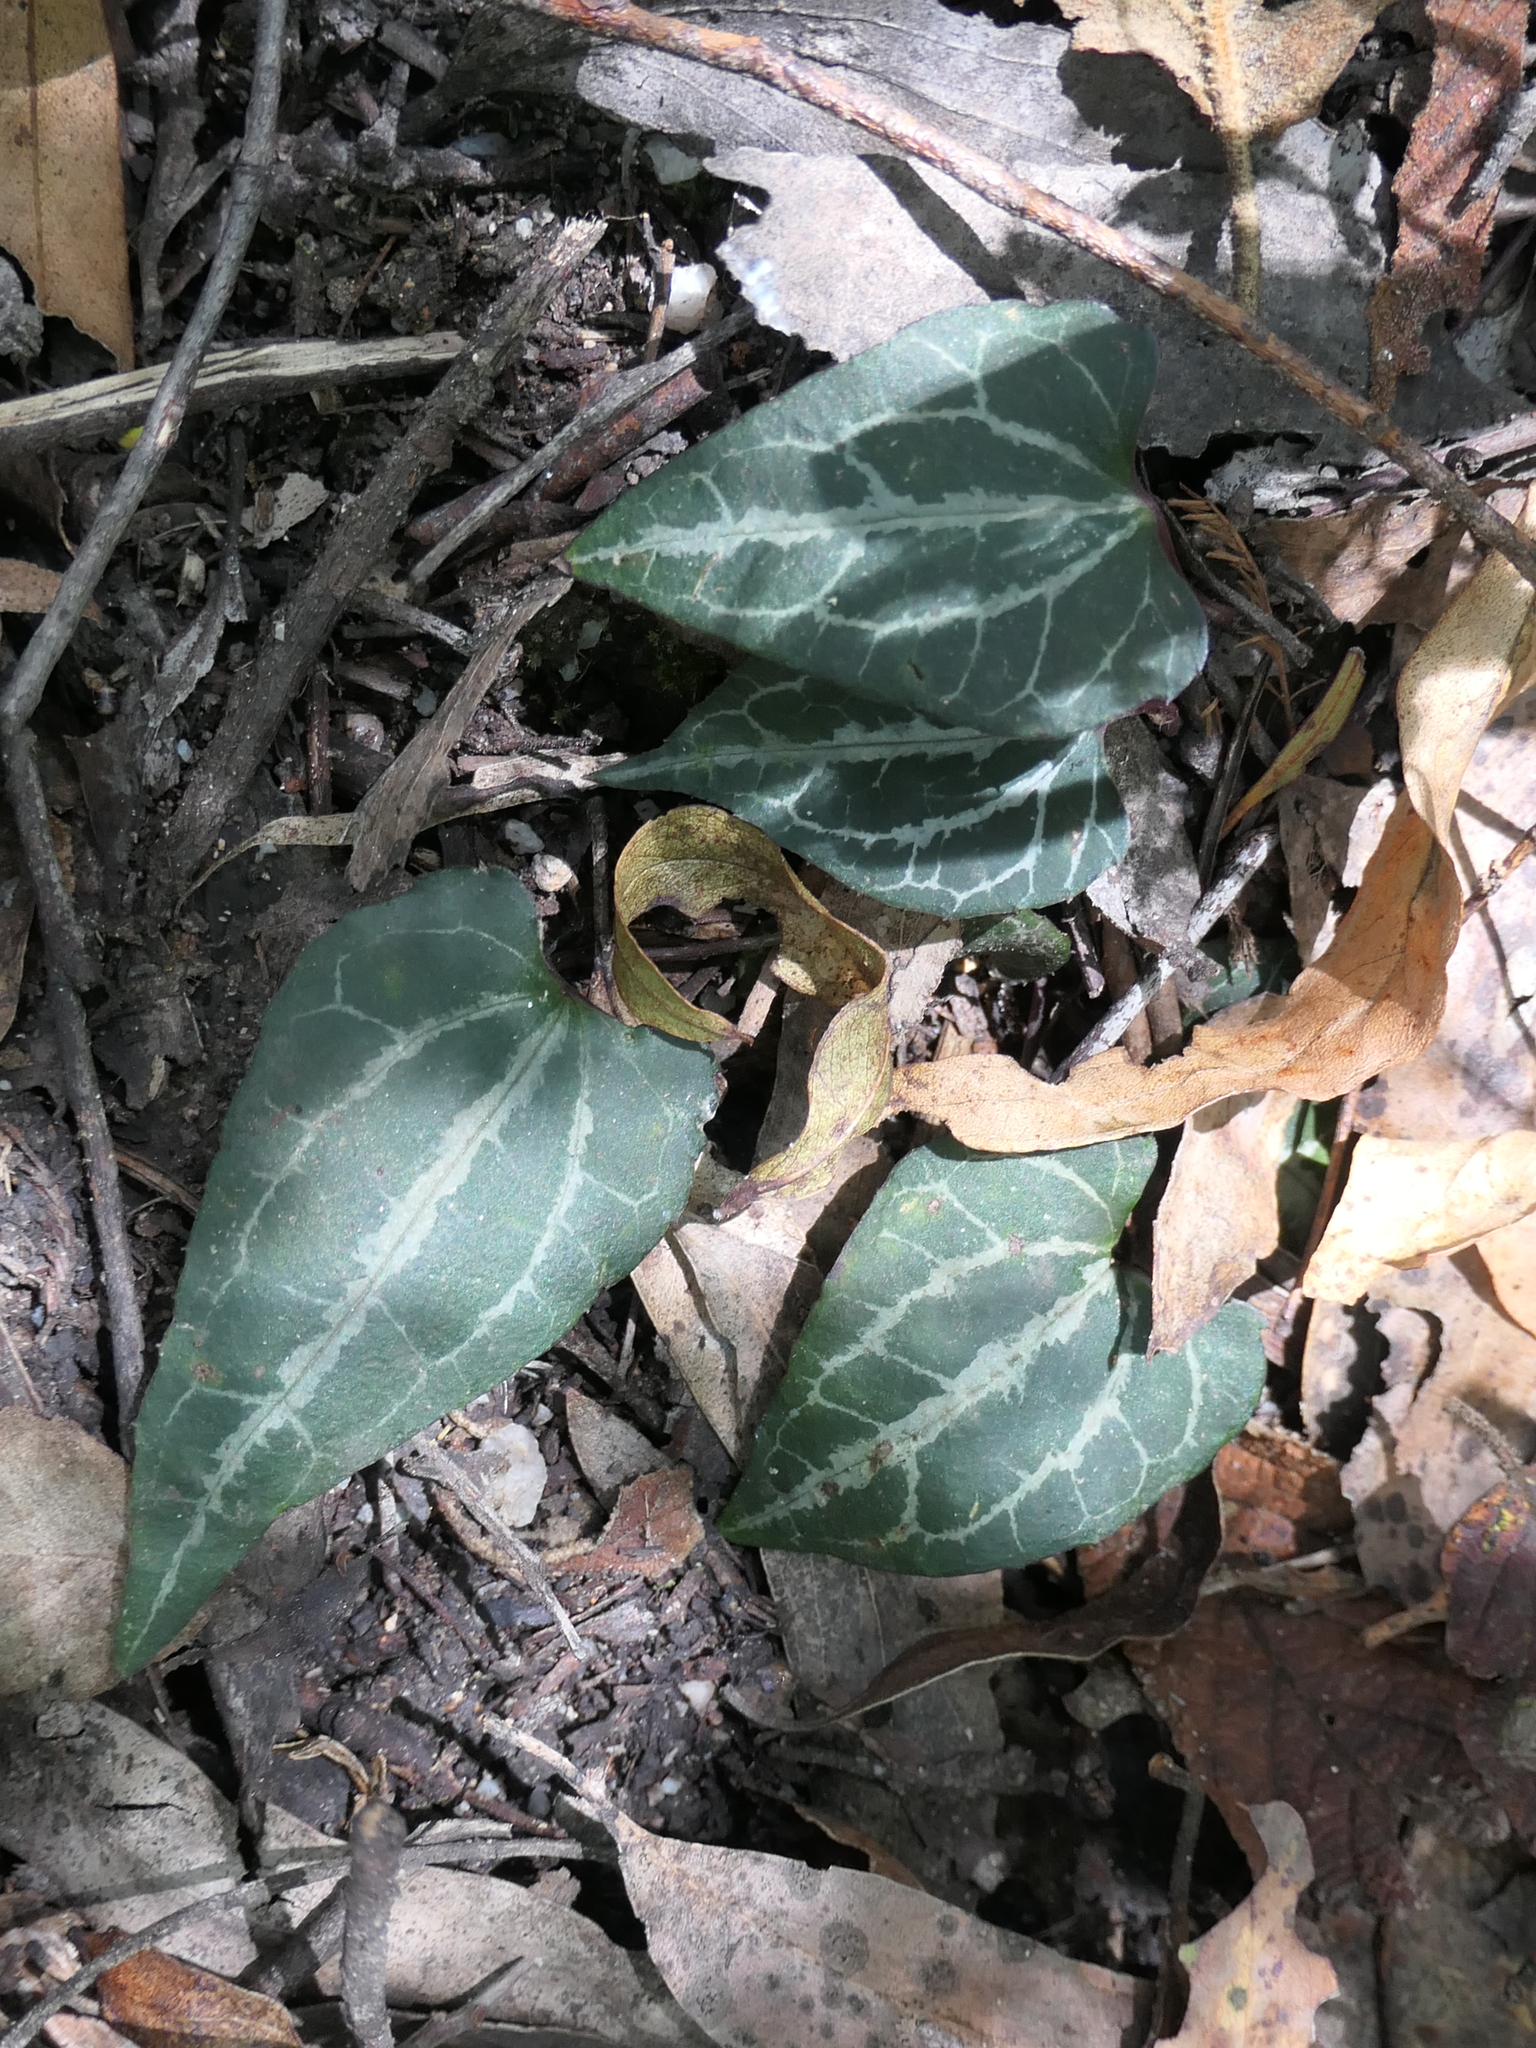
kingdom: Plantae
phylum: Tracheophyta
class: Magnoliopsida
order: Ranunculales
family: Ranunculaceae
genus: Clematis
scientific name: Clematis aristata
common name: Mountain clematis
